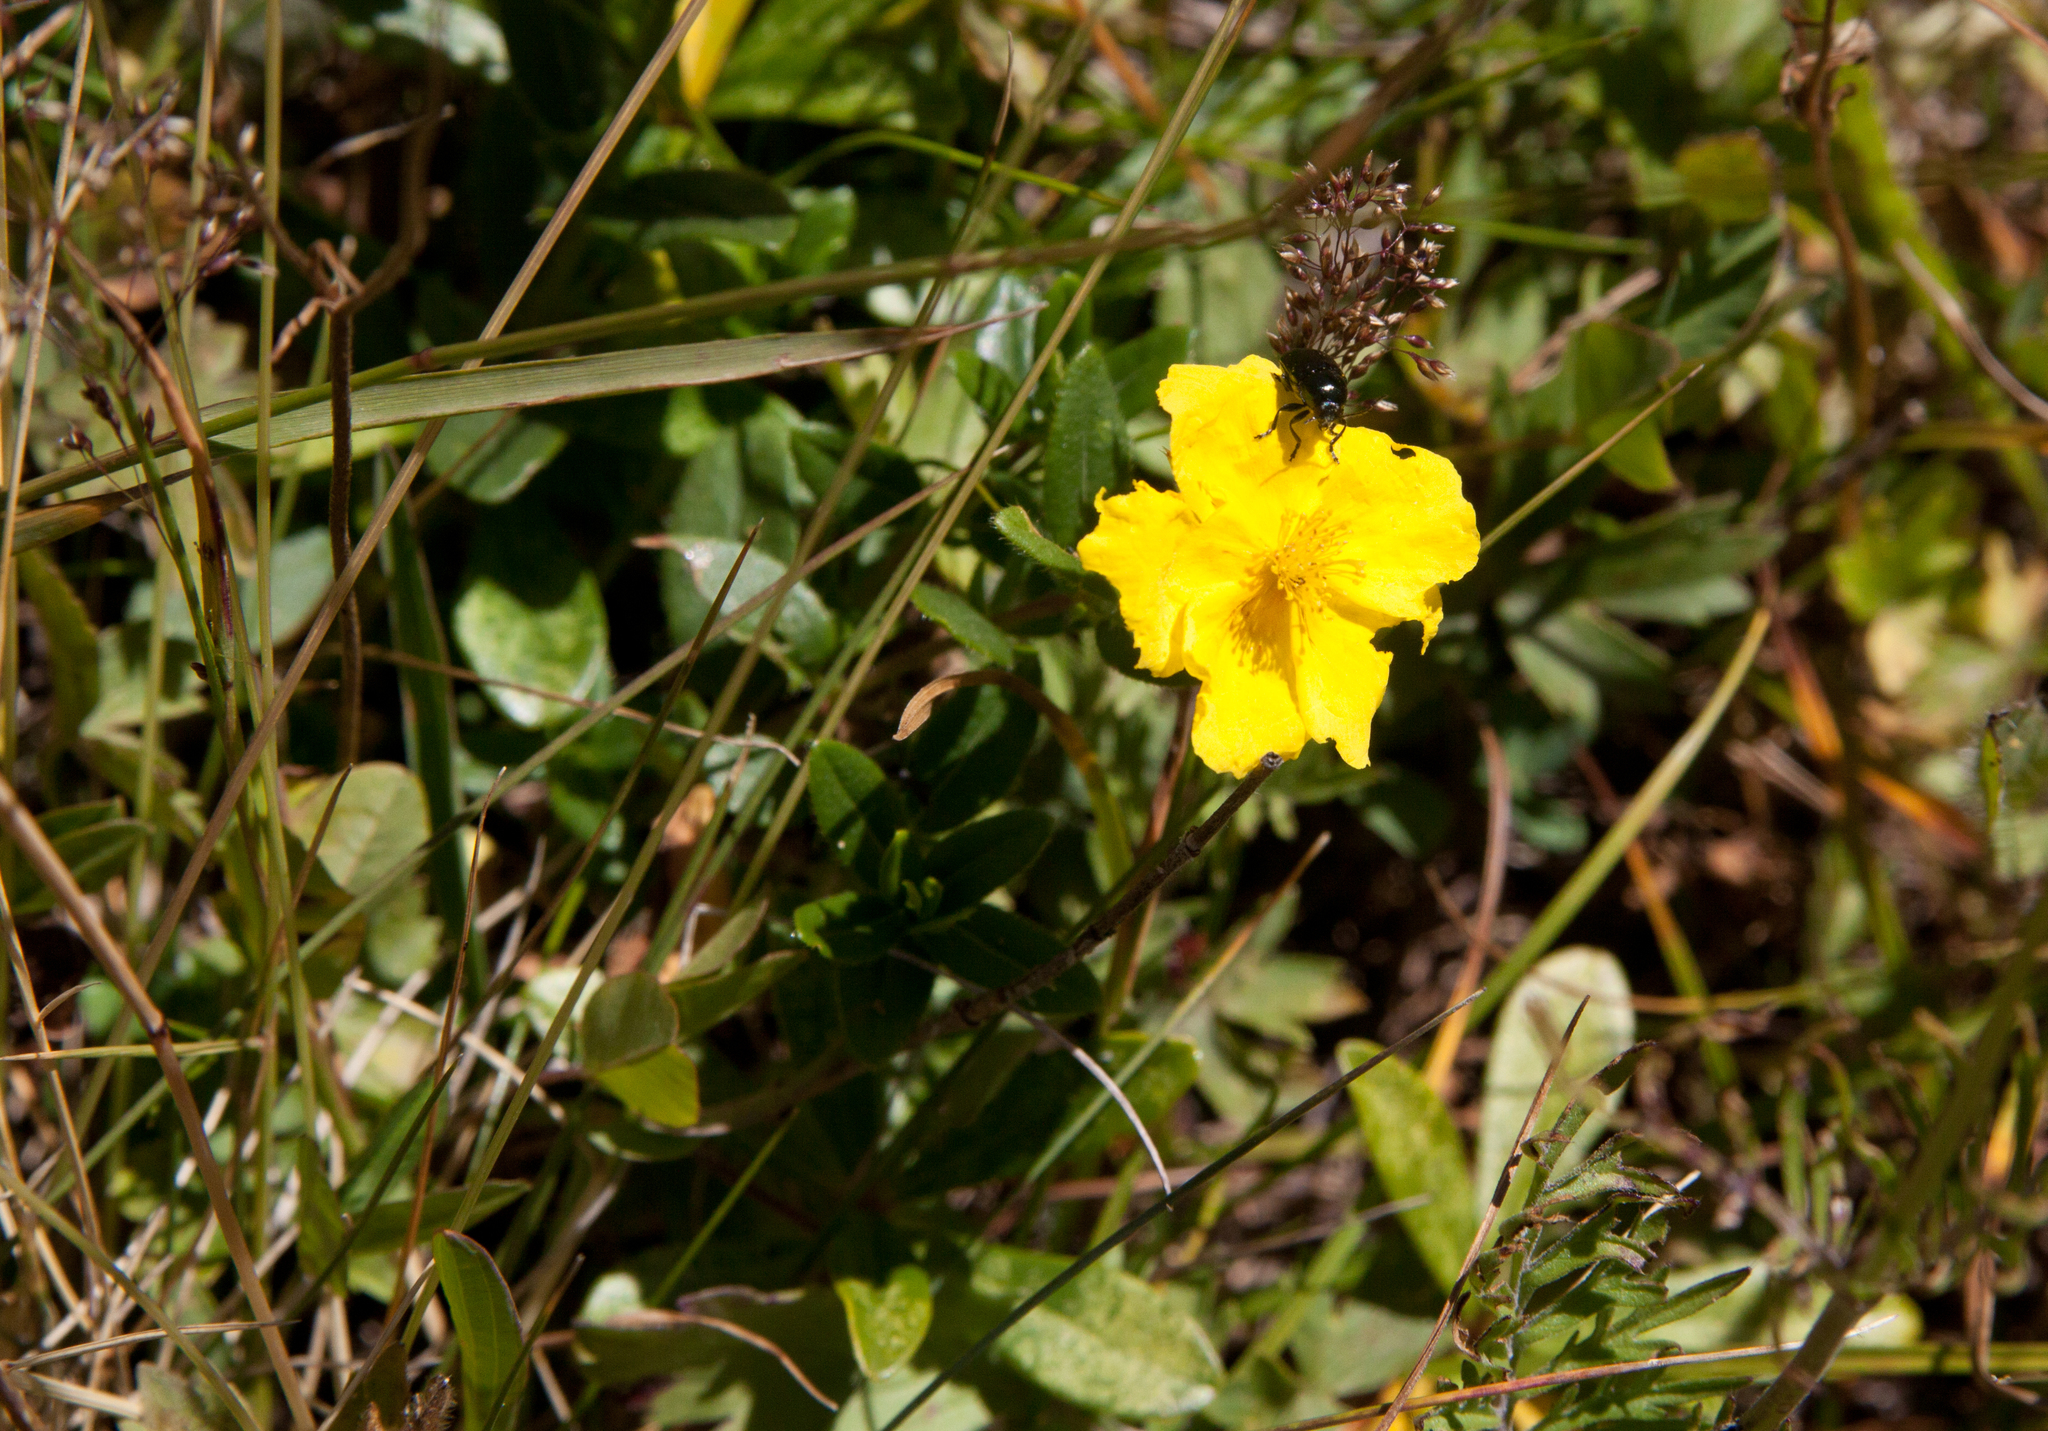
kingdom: Plantae
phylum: Tracheophyta
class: Magnoliopsida
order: Malvales
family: Cistaceae
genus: Helianthemum
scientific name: Helianthemum nummularium
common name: Common rock-rose
